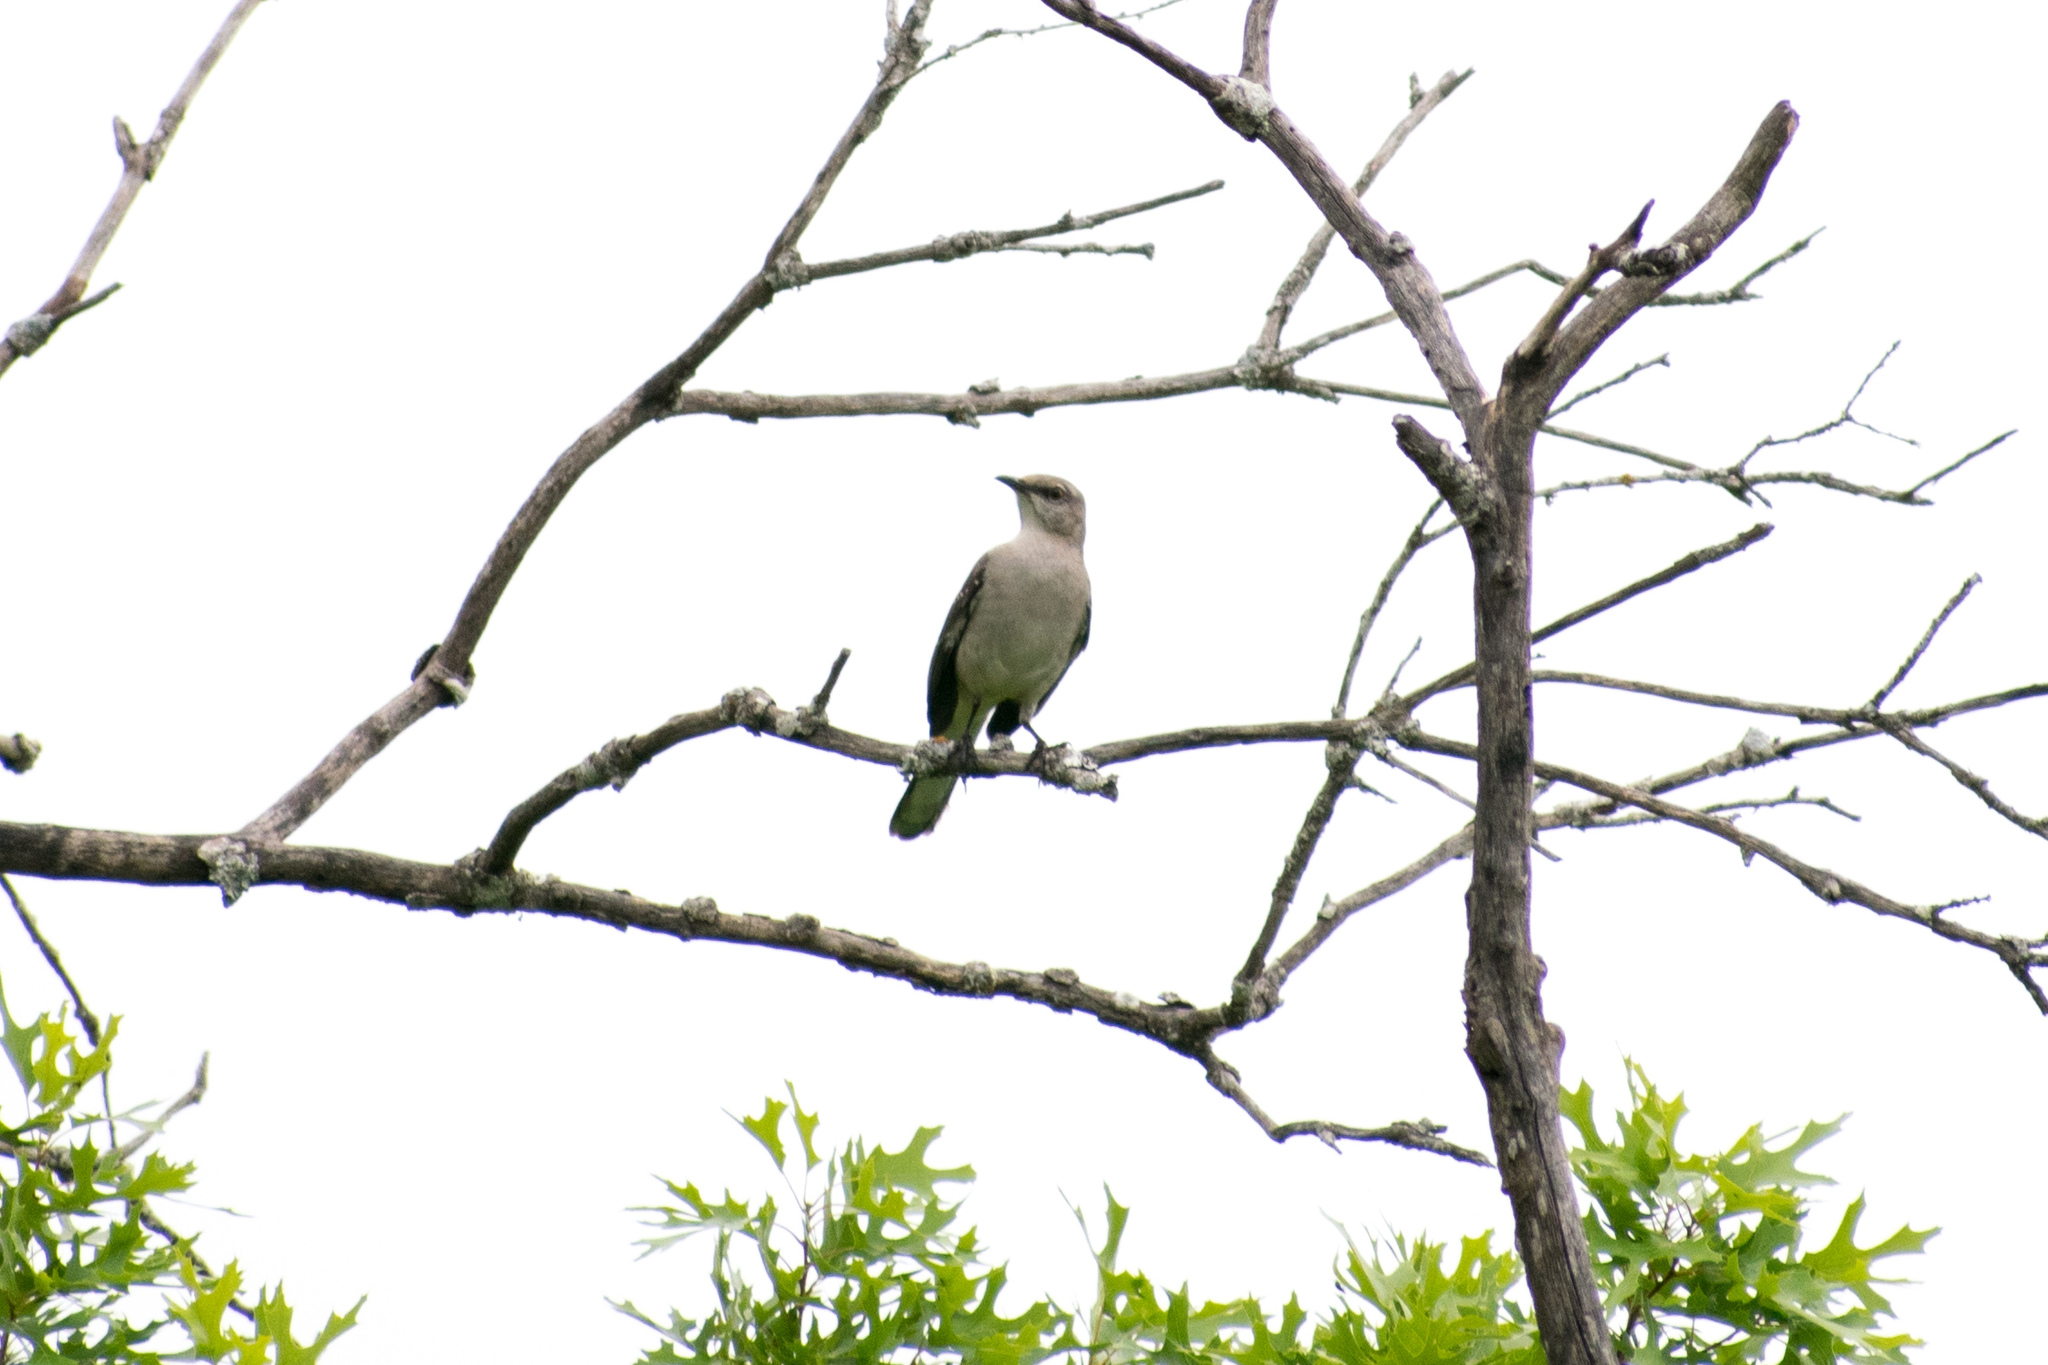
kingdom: Animalia
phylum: Chordata
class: Aves
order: Passeriformes
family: Mimidae
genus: Mimus
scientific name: Mimus polyglottos
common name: Northern mockingbird
